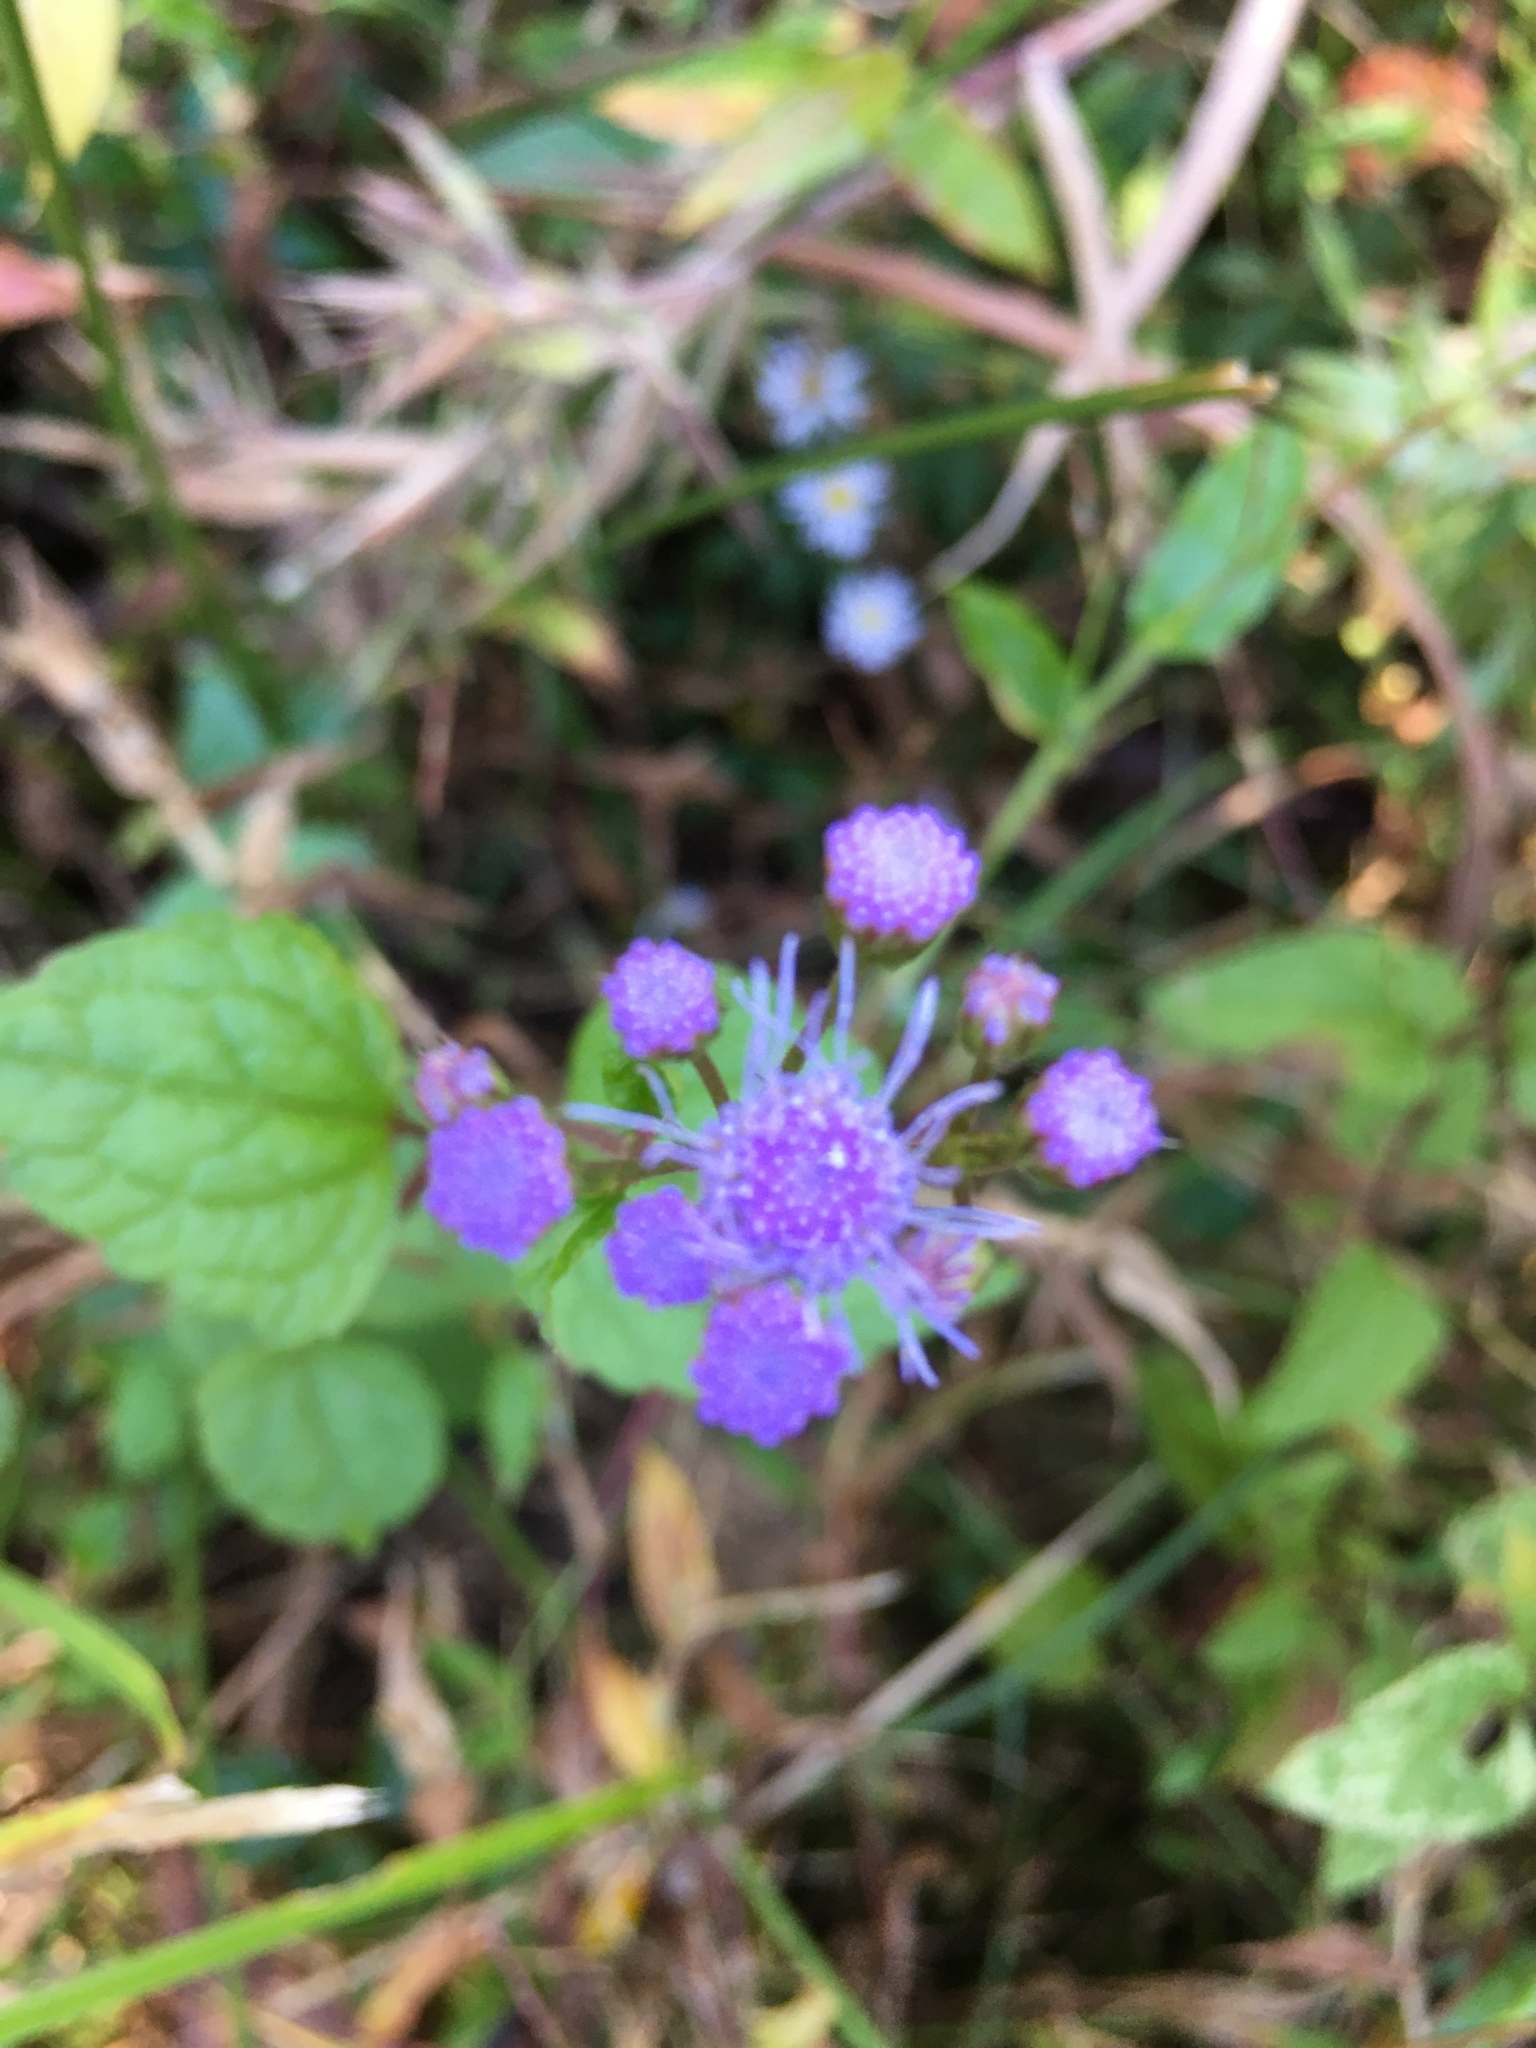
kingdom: Plantae
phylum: Tracheophyta
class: Magnoliopsida
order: Asterales
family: Asteraceae
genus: Conoclinium
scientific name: Conoclinium coelestinum
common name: Blue mistflower
